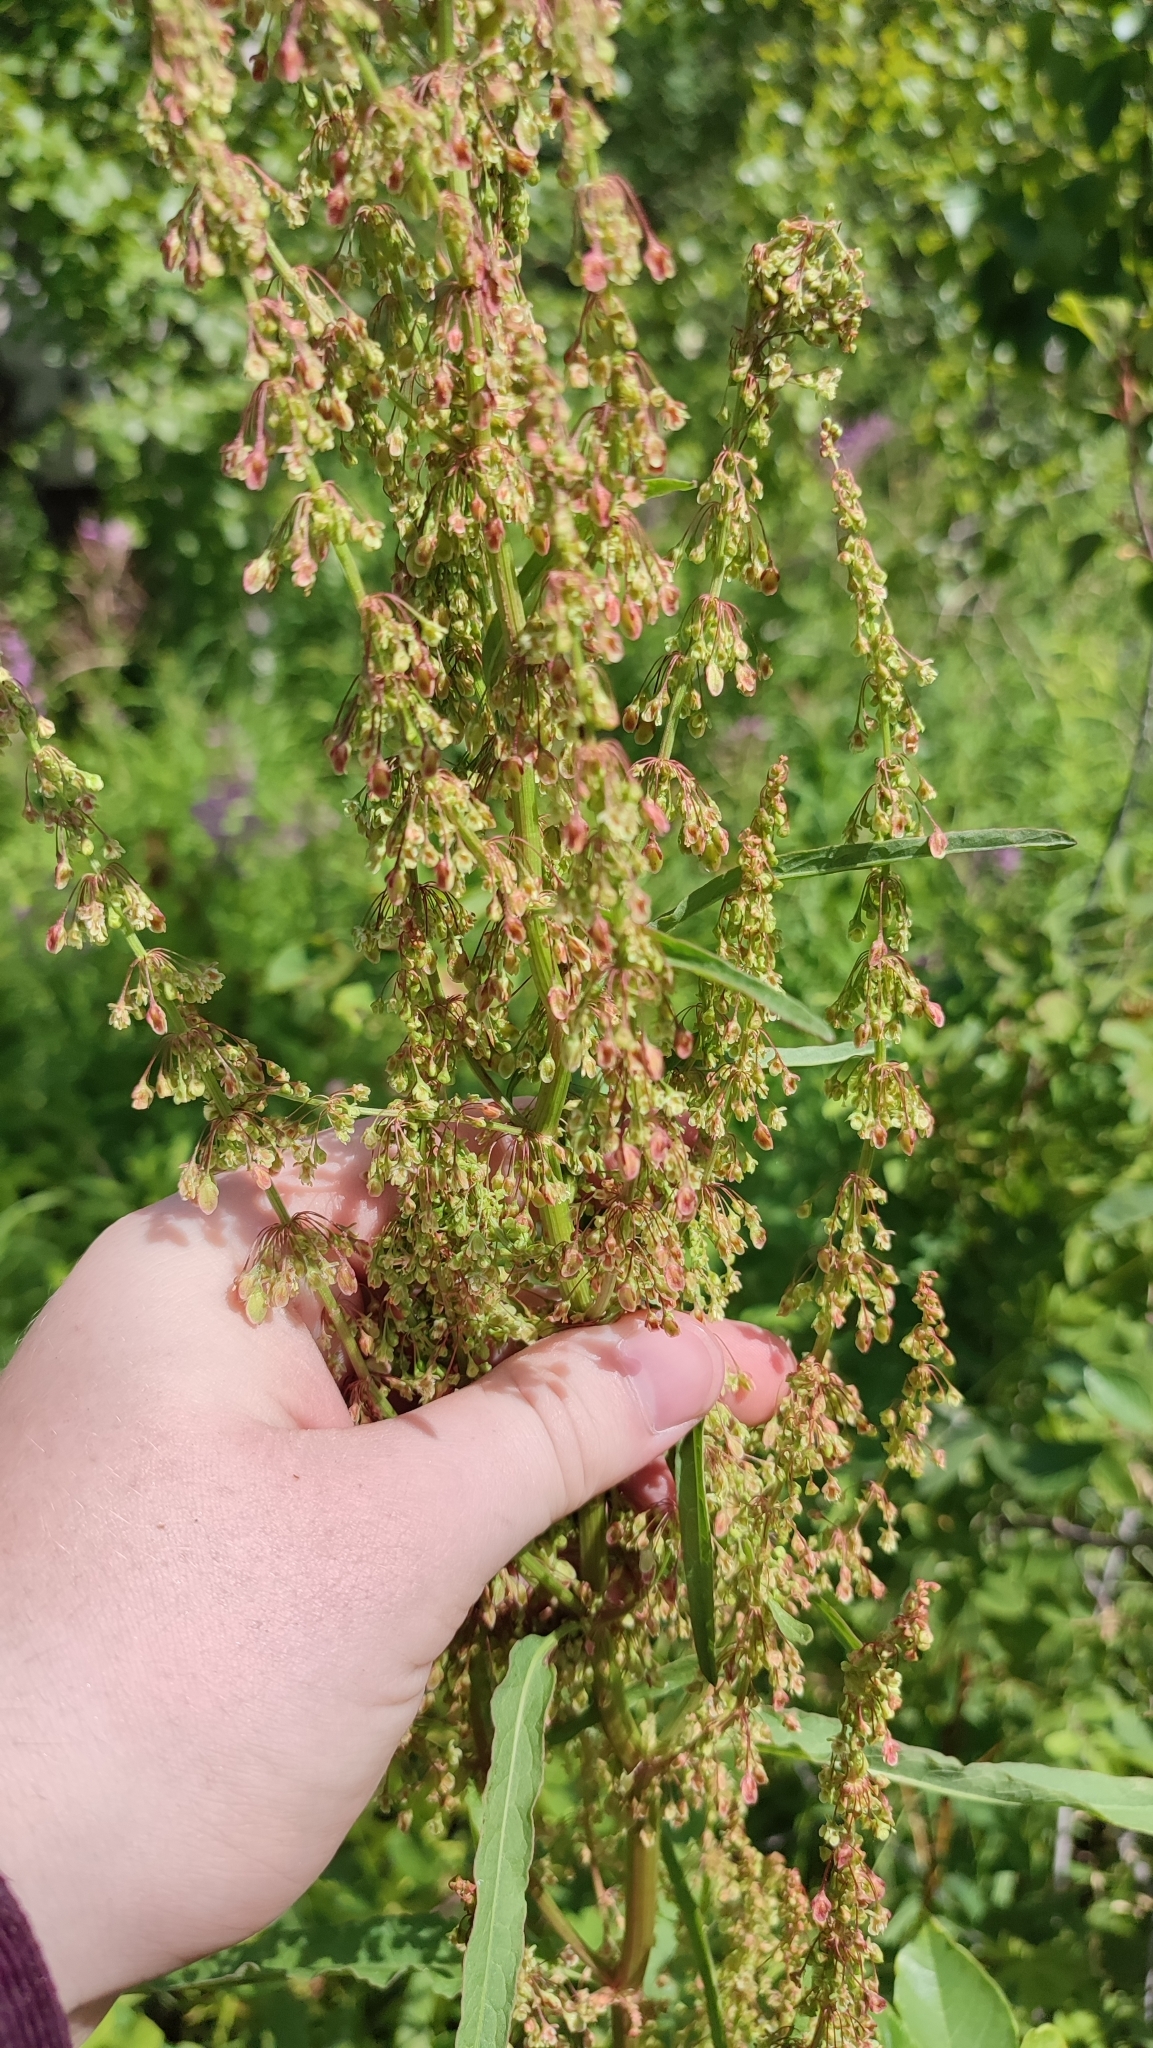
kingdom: Plantae
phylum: Tracheophyta
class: Magnoliopsida
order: Caryophyllales
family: Polygonaceae
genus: Rumex
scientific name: Rumex aquaticus
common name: Scottish dock
